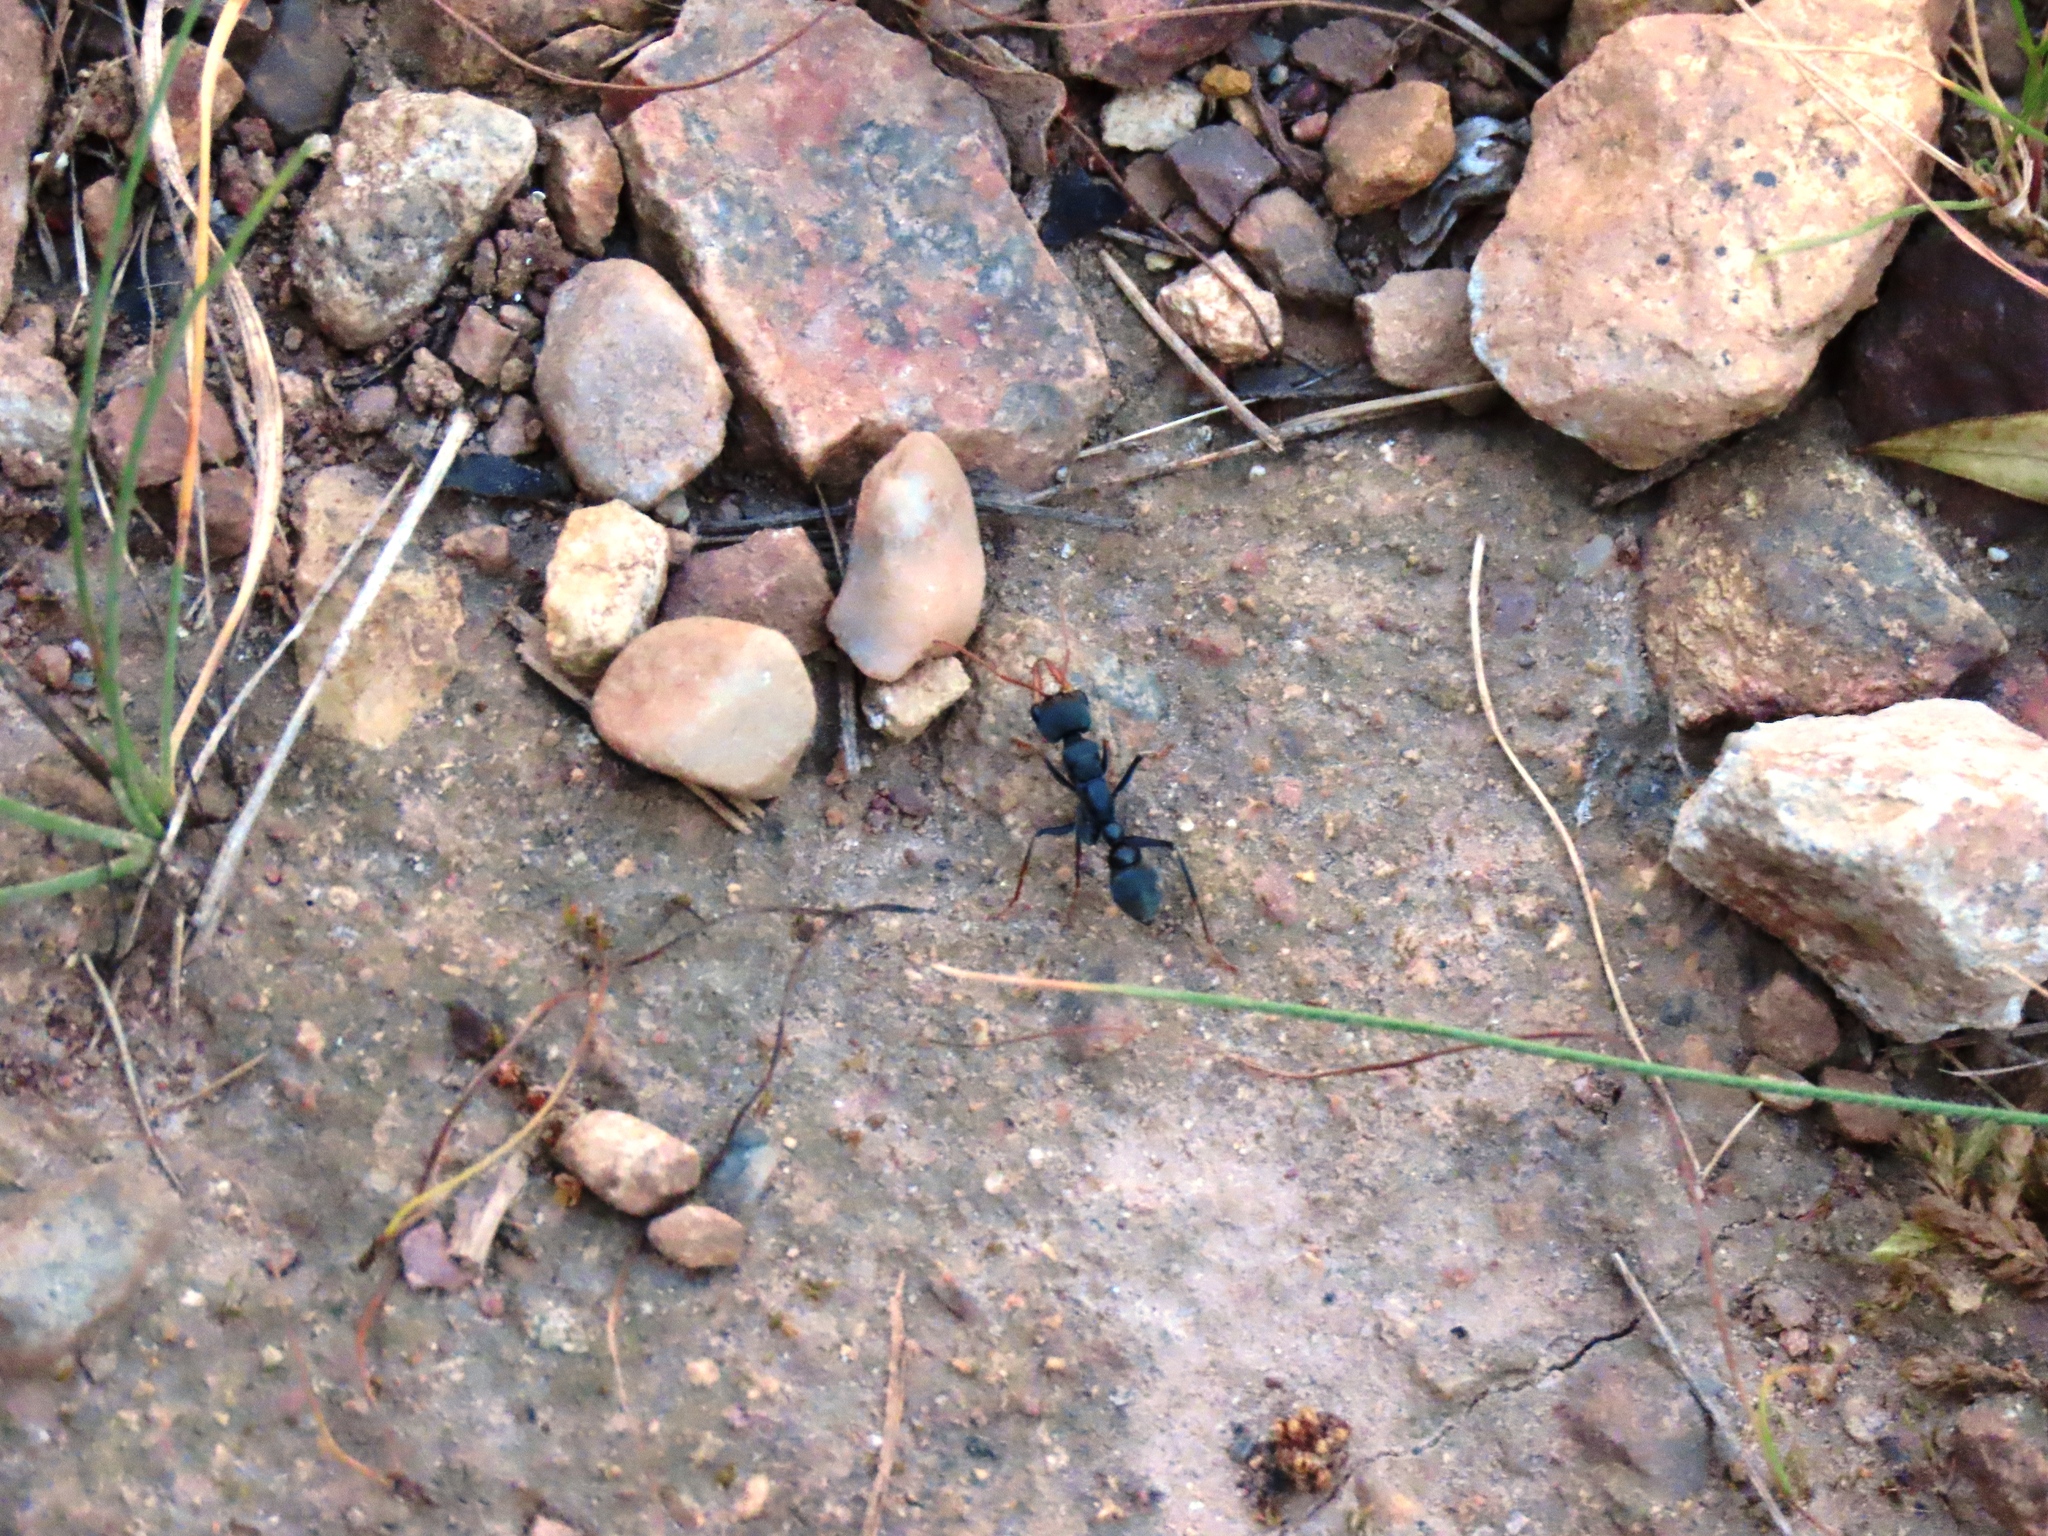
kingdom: Animalia
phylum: Arthropoda
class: Insecta
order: Hymenoptera
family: Formicidae
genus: Myrmecia
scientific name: Myrmecia pilosula
